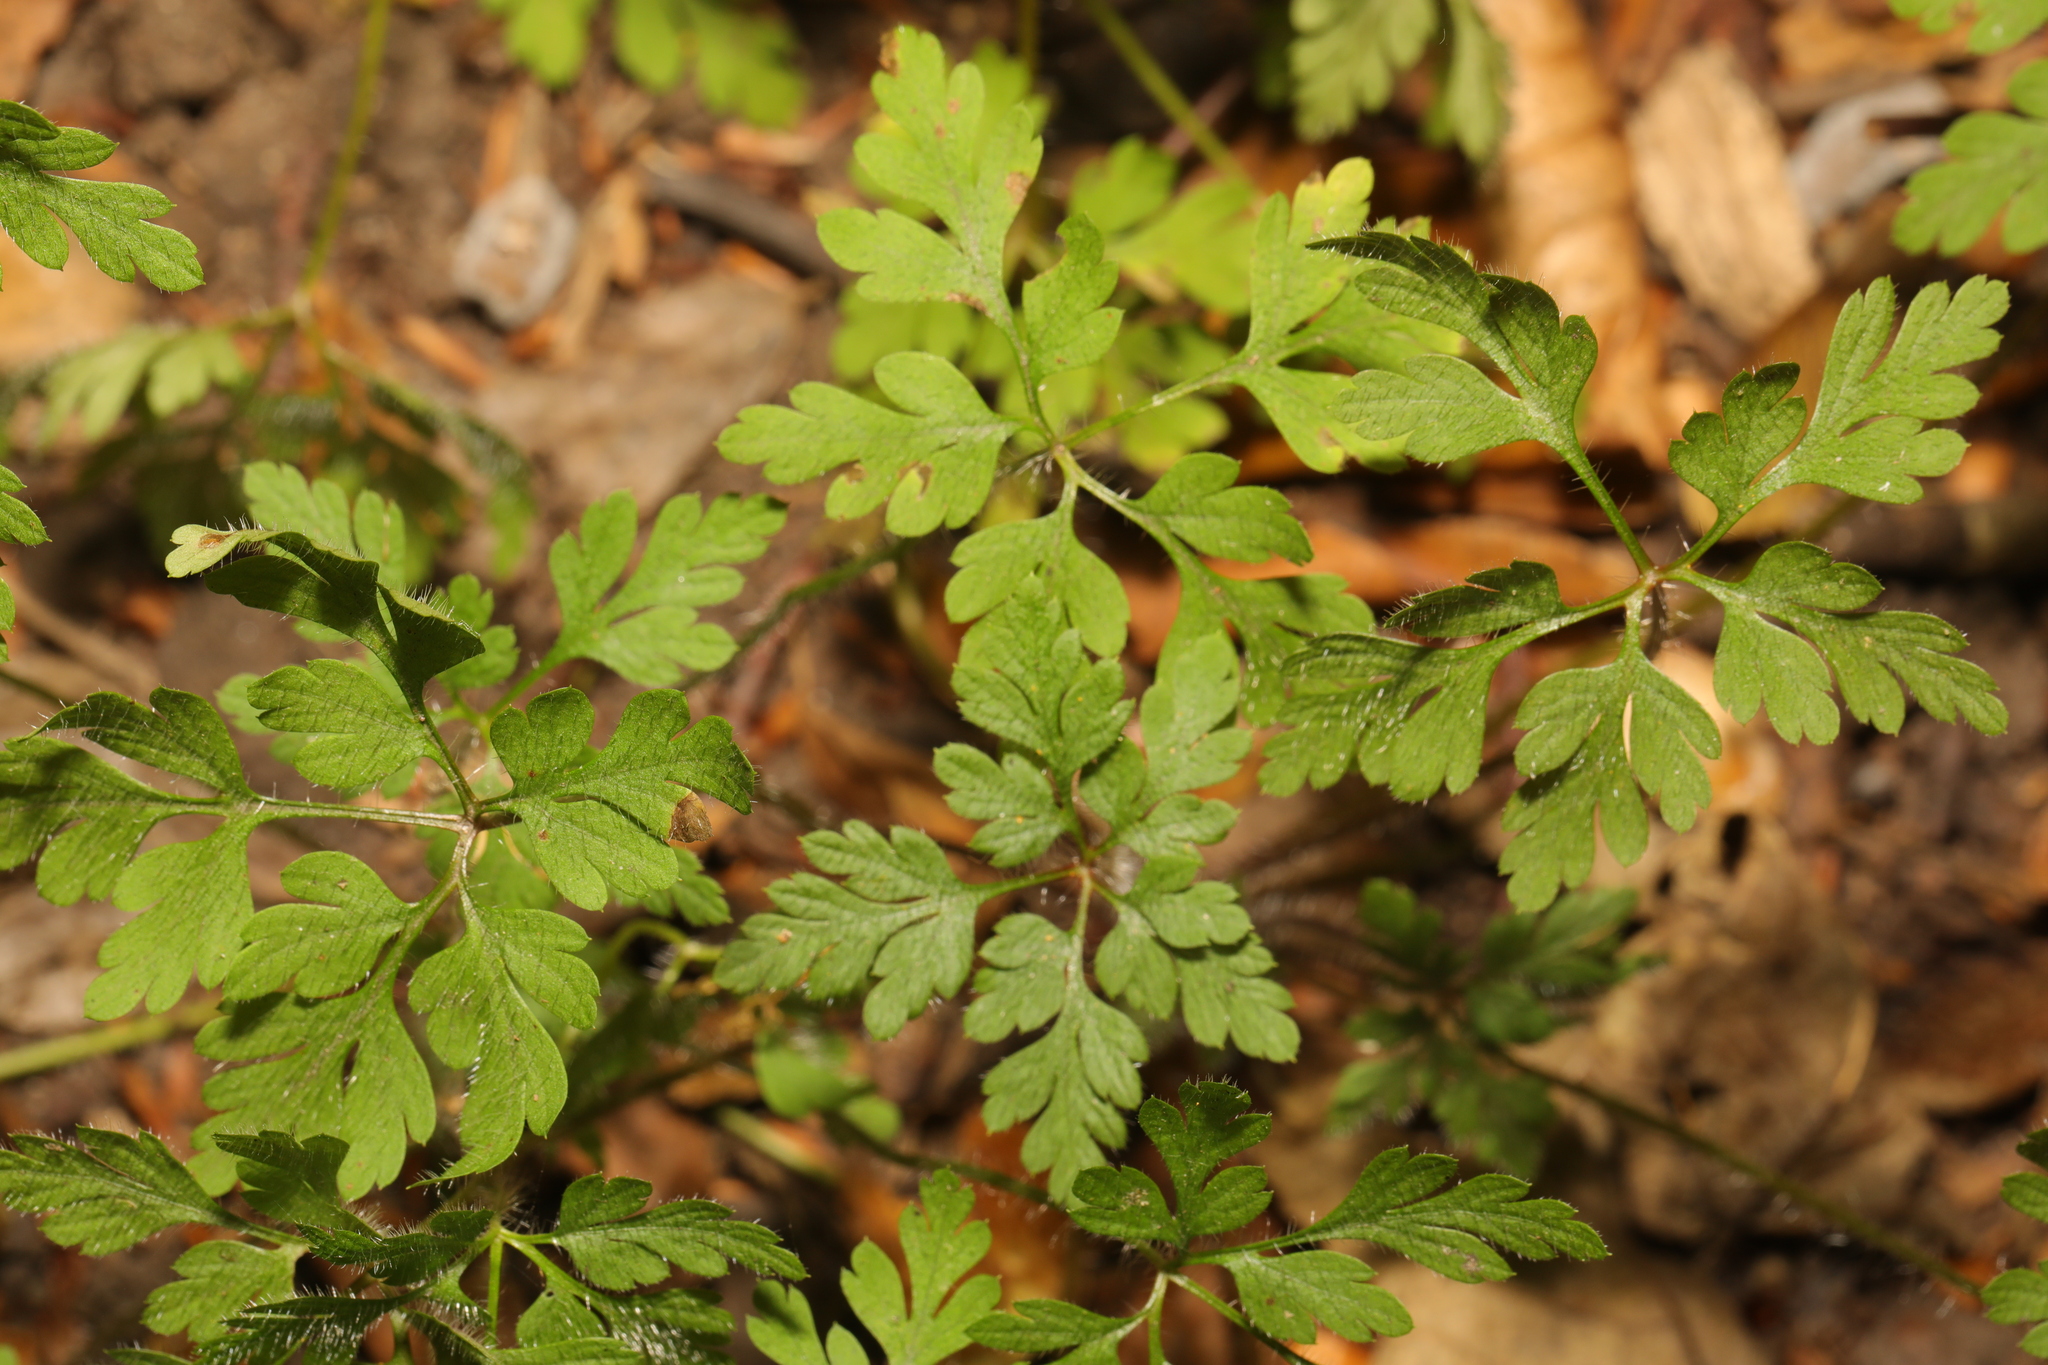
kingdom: Plantae
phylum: Tracheophyta
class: Magnoliopsida
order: Geraniales
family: Geraniaceae
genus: Geranium
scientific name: Geranium robertianum
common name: Herb-robert
